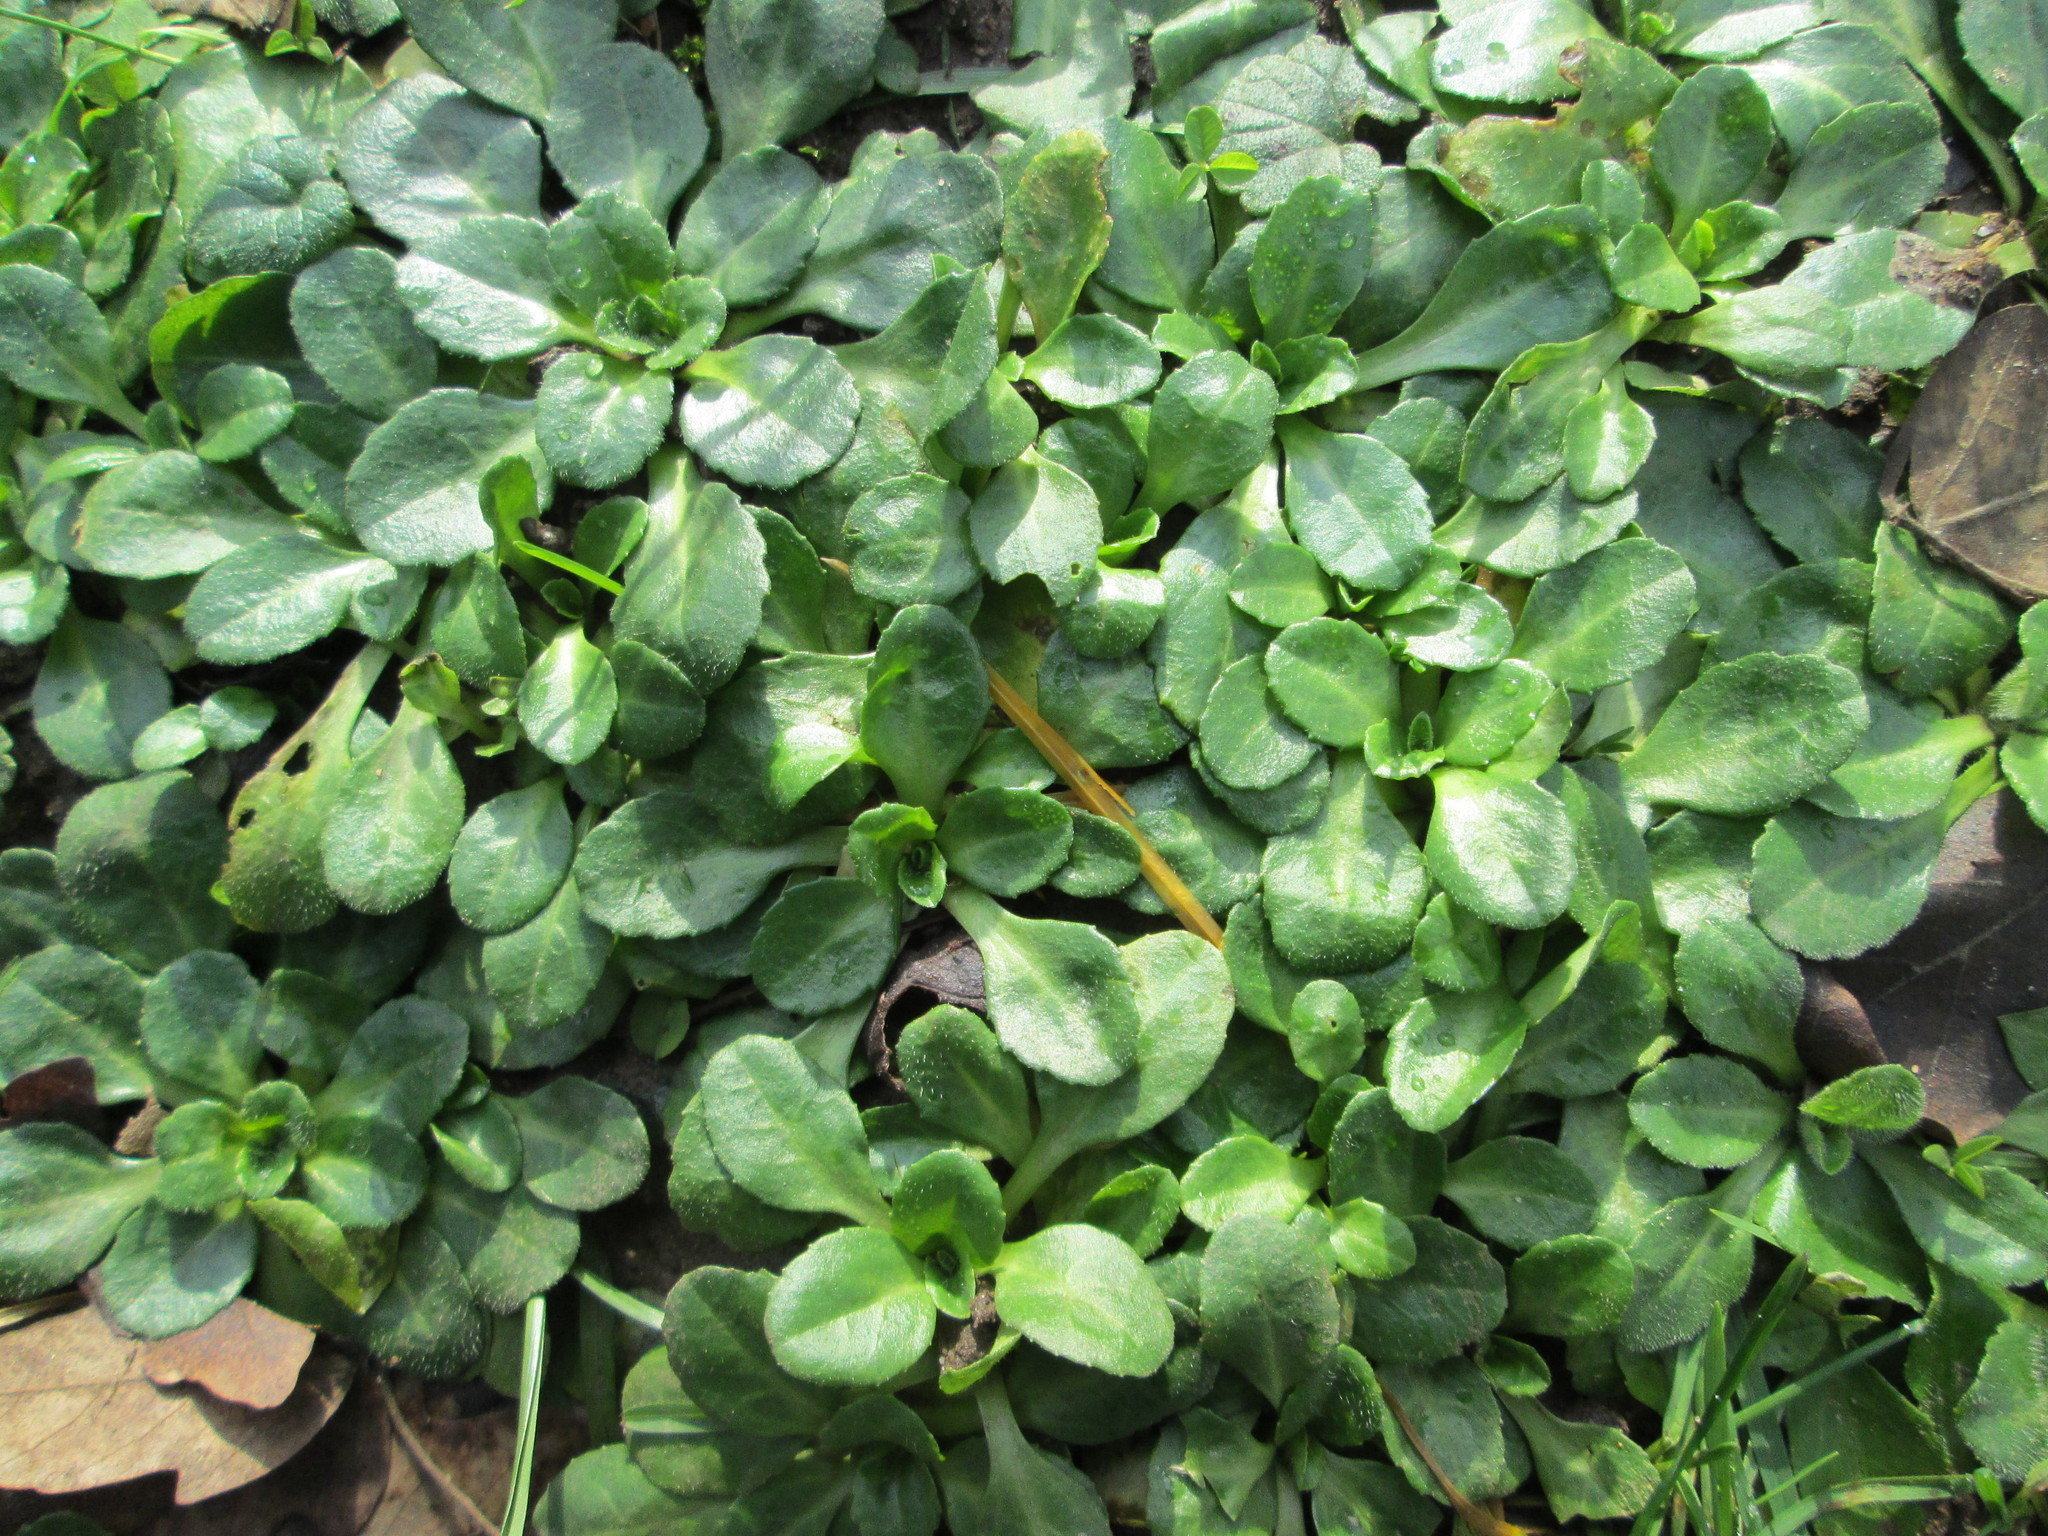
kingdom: Plantae
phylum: Tracheophyta
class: Magnoliopsida
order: Asterales
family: Asteraceae
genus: Bellis
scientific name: Bellis perennis
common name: Lawndaisy
